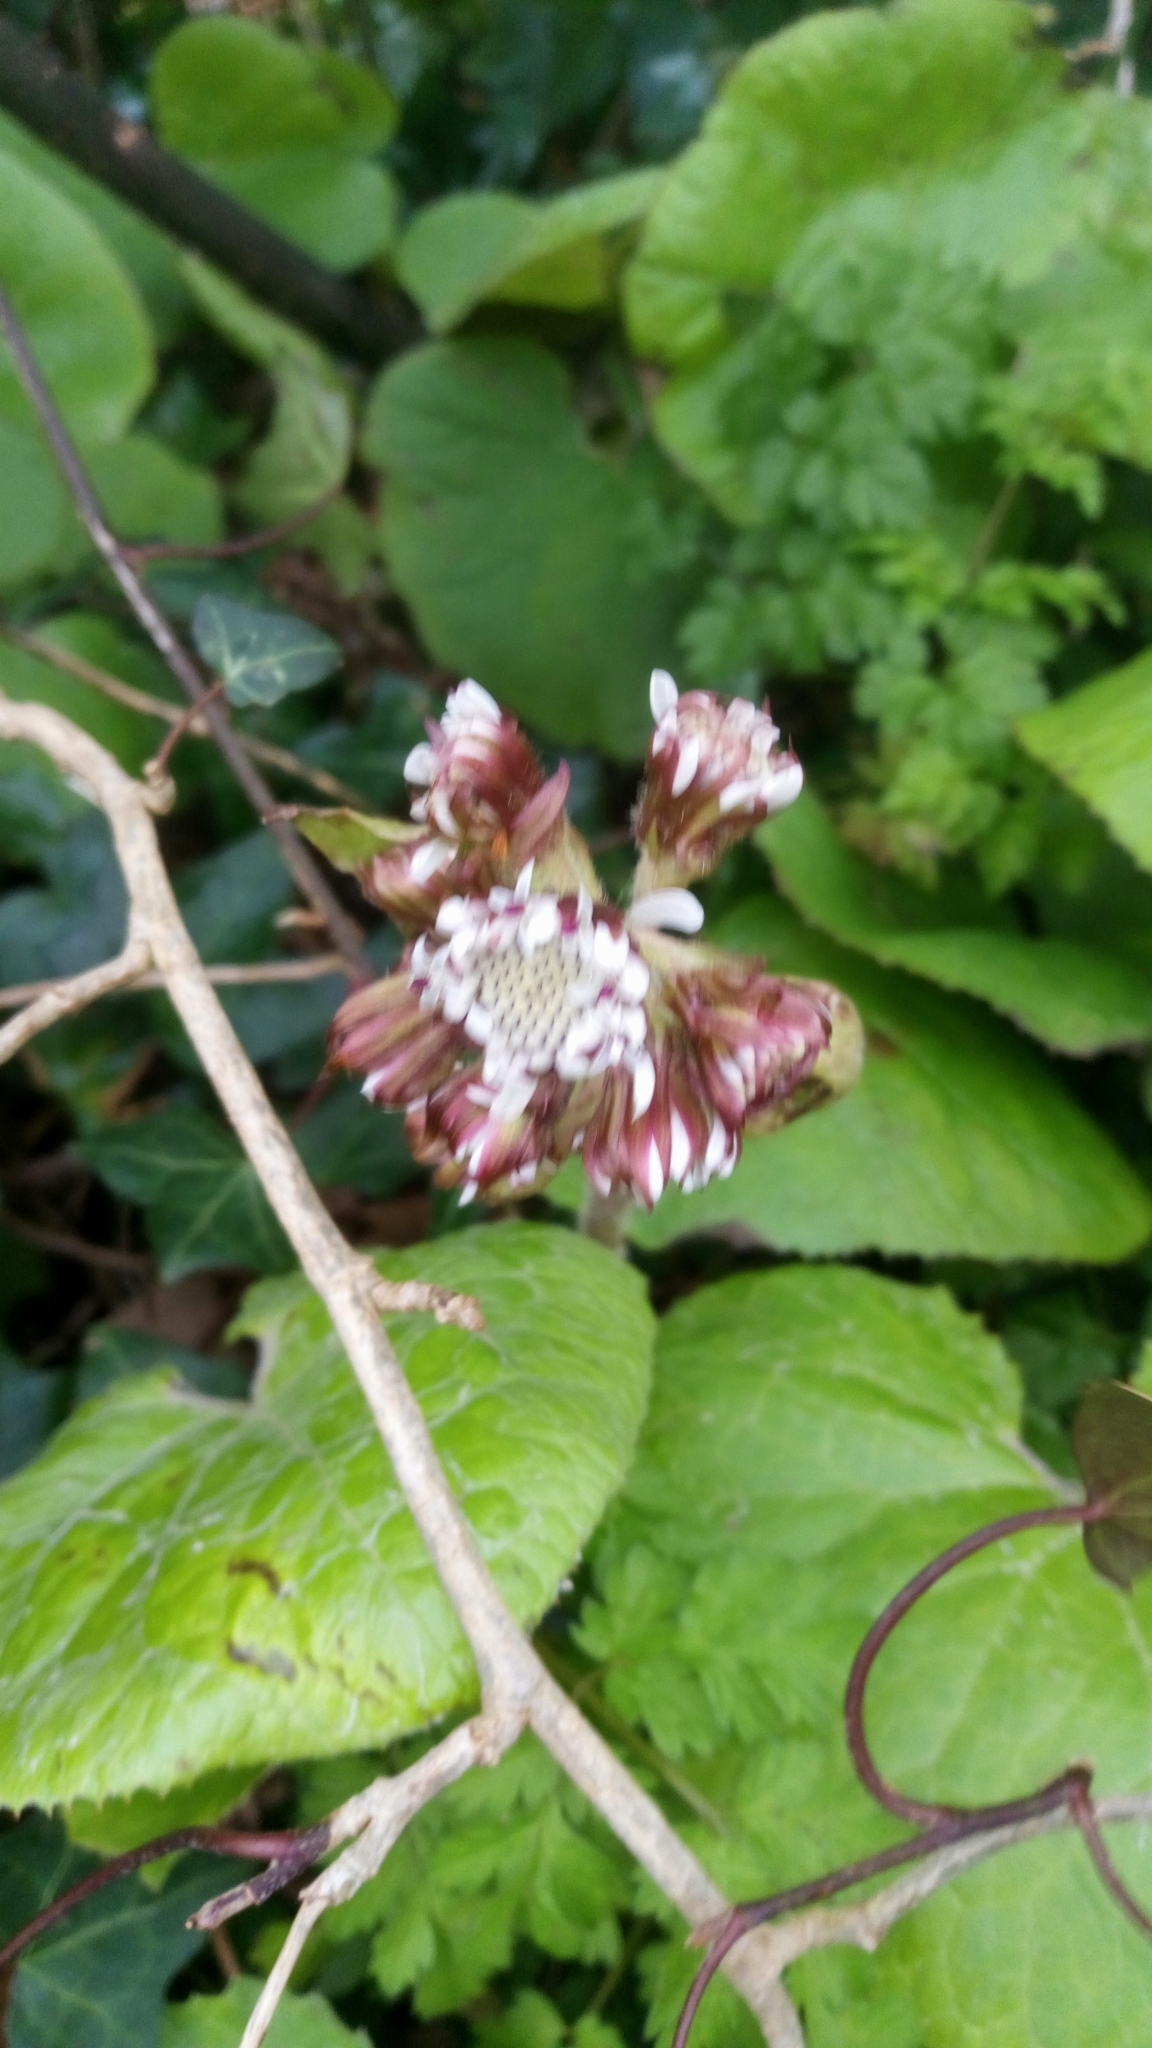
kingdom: Plantae
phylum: Tracheophyta
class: Magnoliopsida
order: Asterales
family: Asteraceae
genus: Petasites
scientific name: Petasites pyrenaicus
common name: Winter heliotrope
